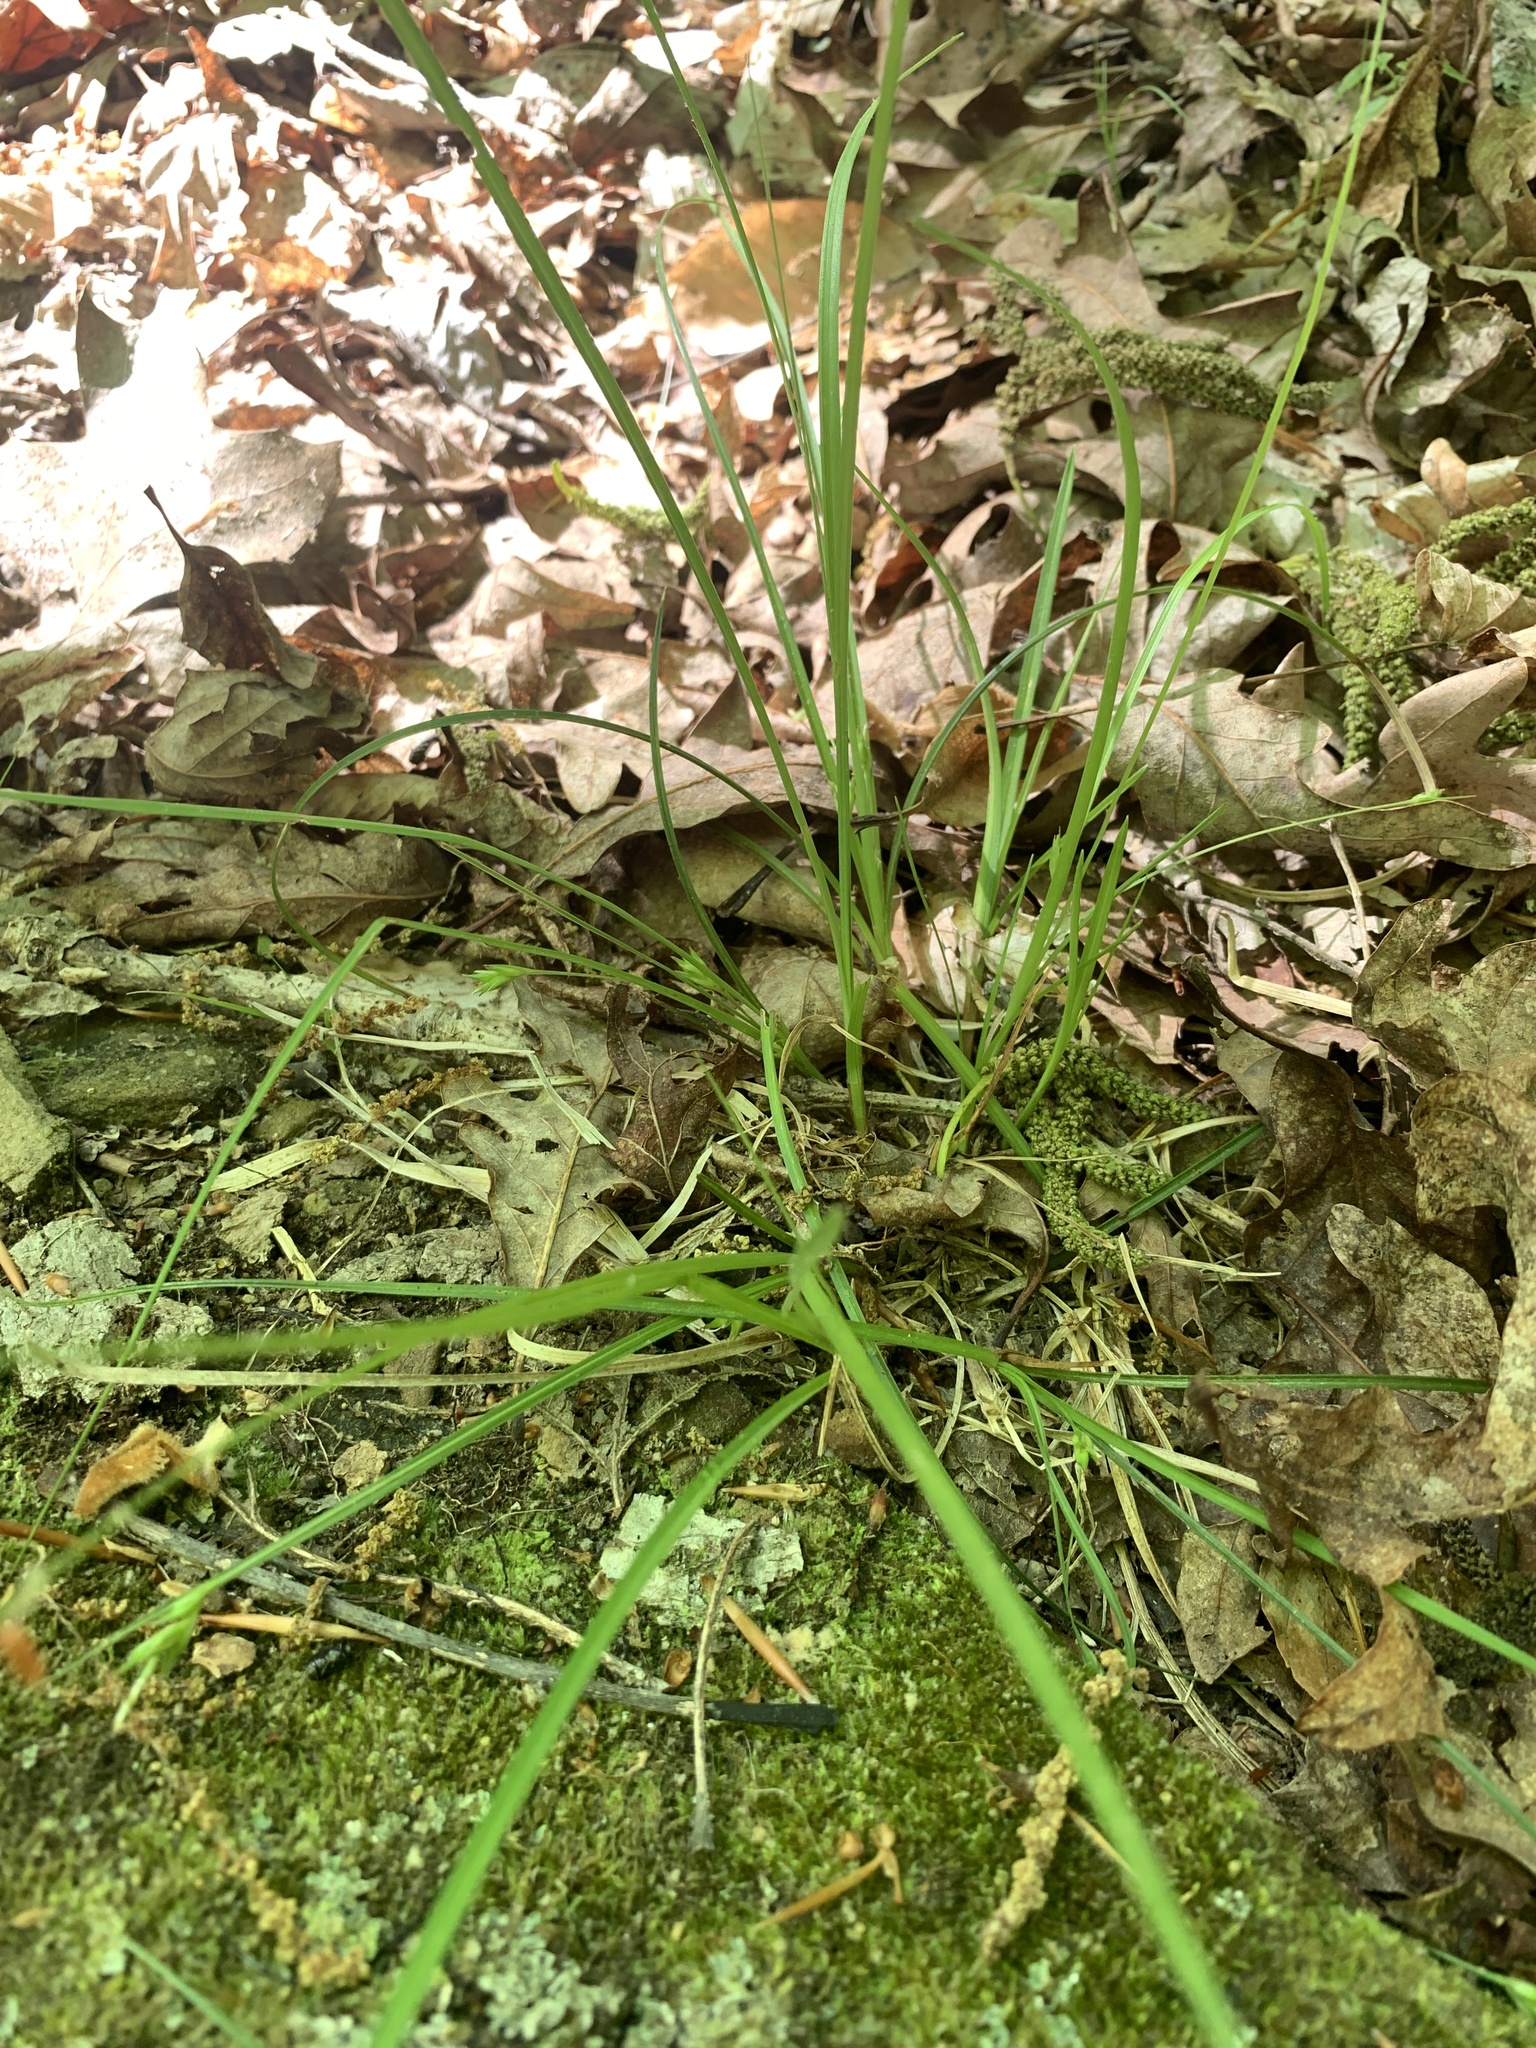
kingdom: Plantae
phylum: Tracheophyta
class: Liliopsida
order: Poales
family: Cyperaceae
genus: Carex
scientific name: Carex willdenowii
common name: Willdenow's sedge
